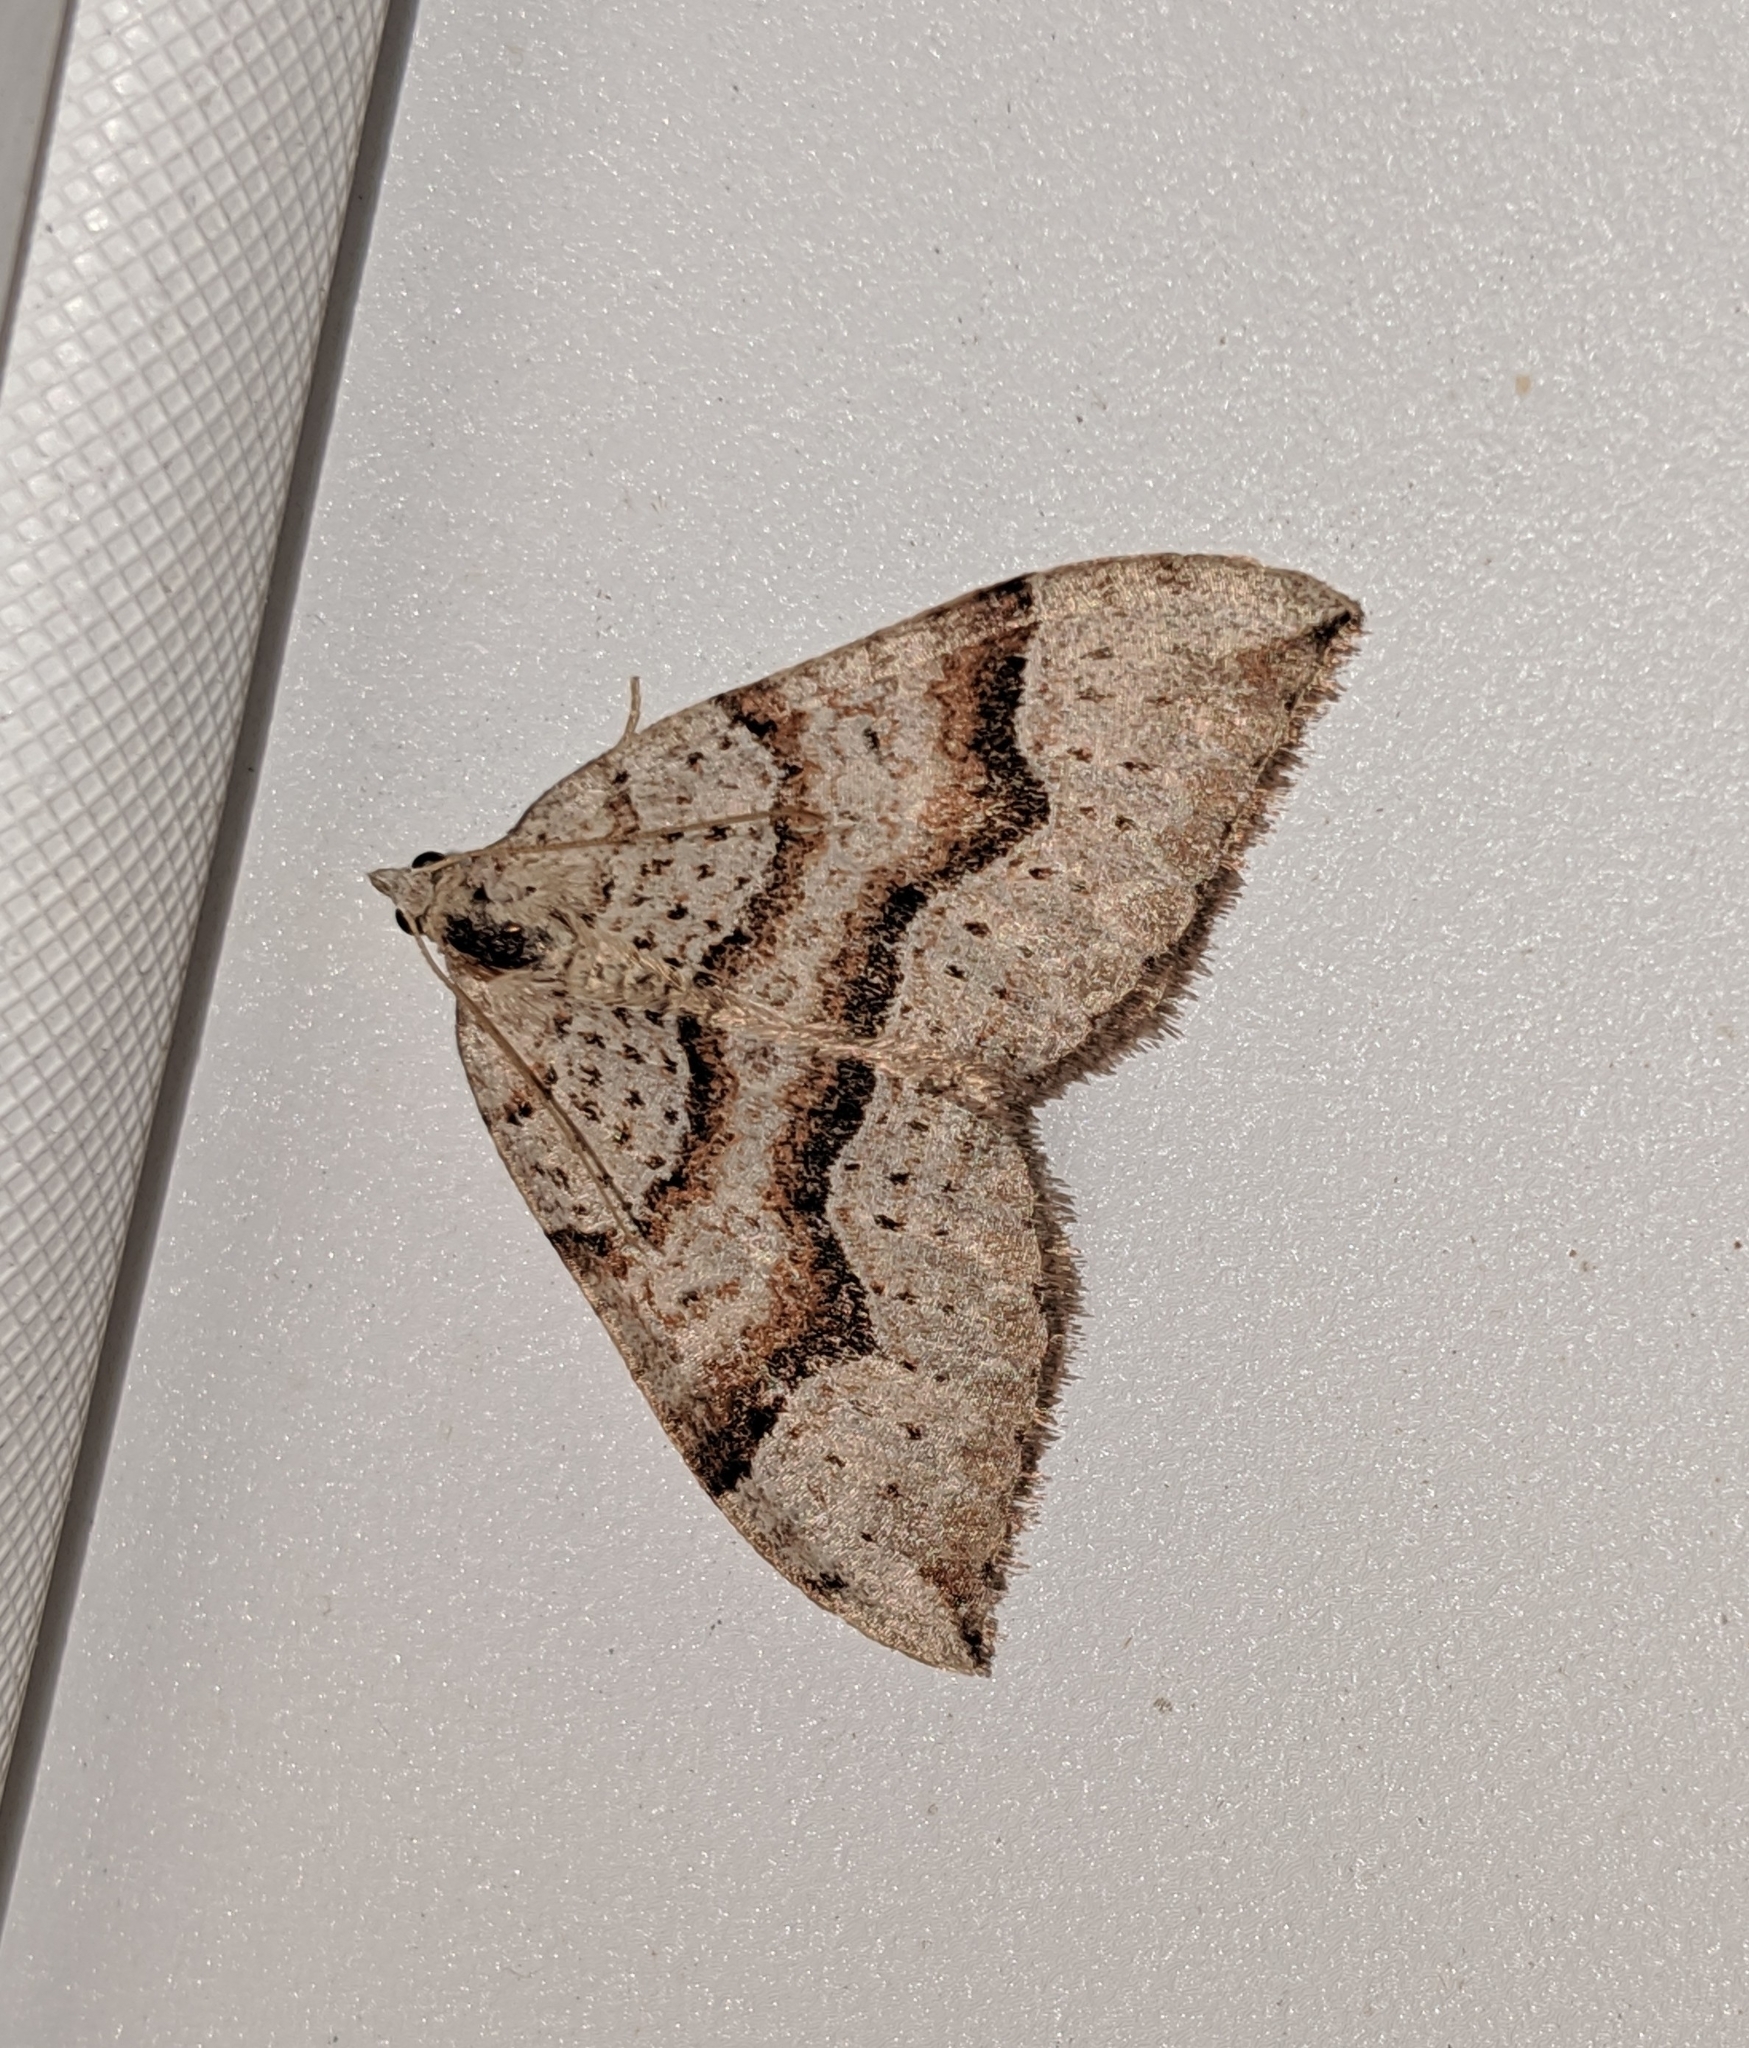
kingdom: Animalia
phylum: Arthropoda
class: Insecta
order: Lepidoptera
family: Geometridae
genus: Zenophleps
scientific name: Zenophleps lignicolorata
